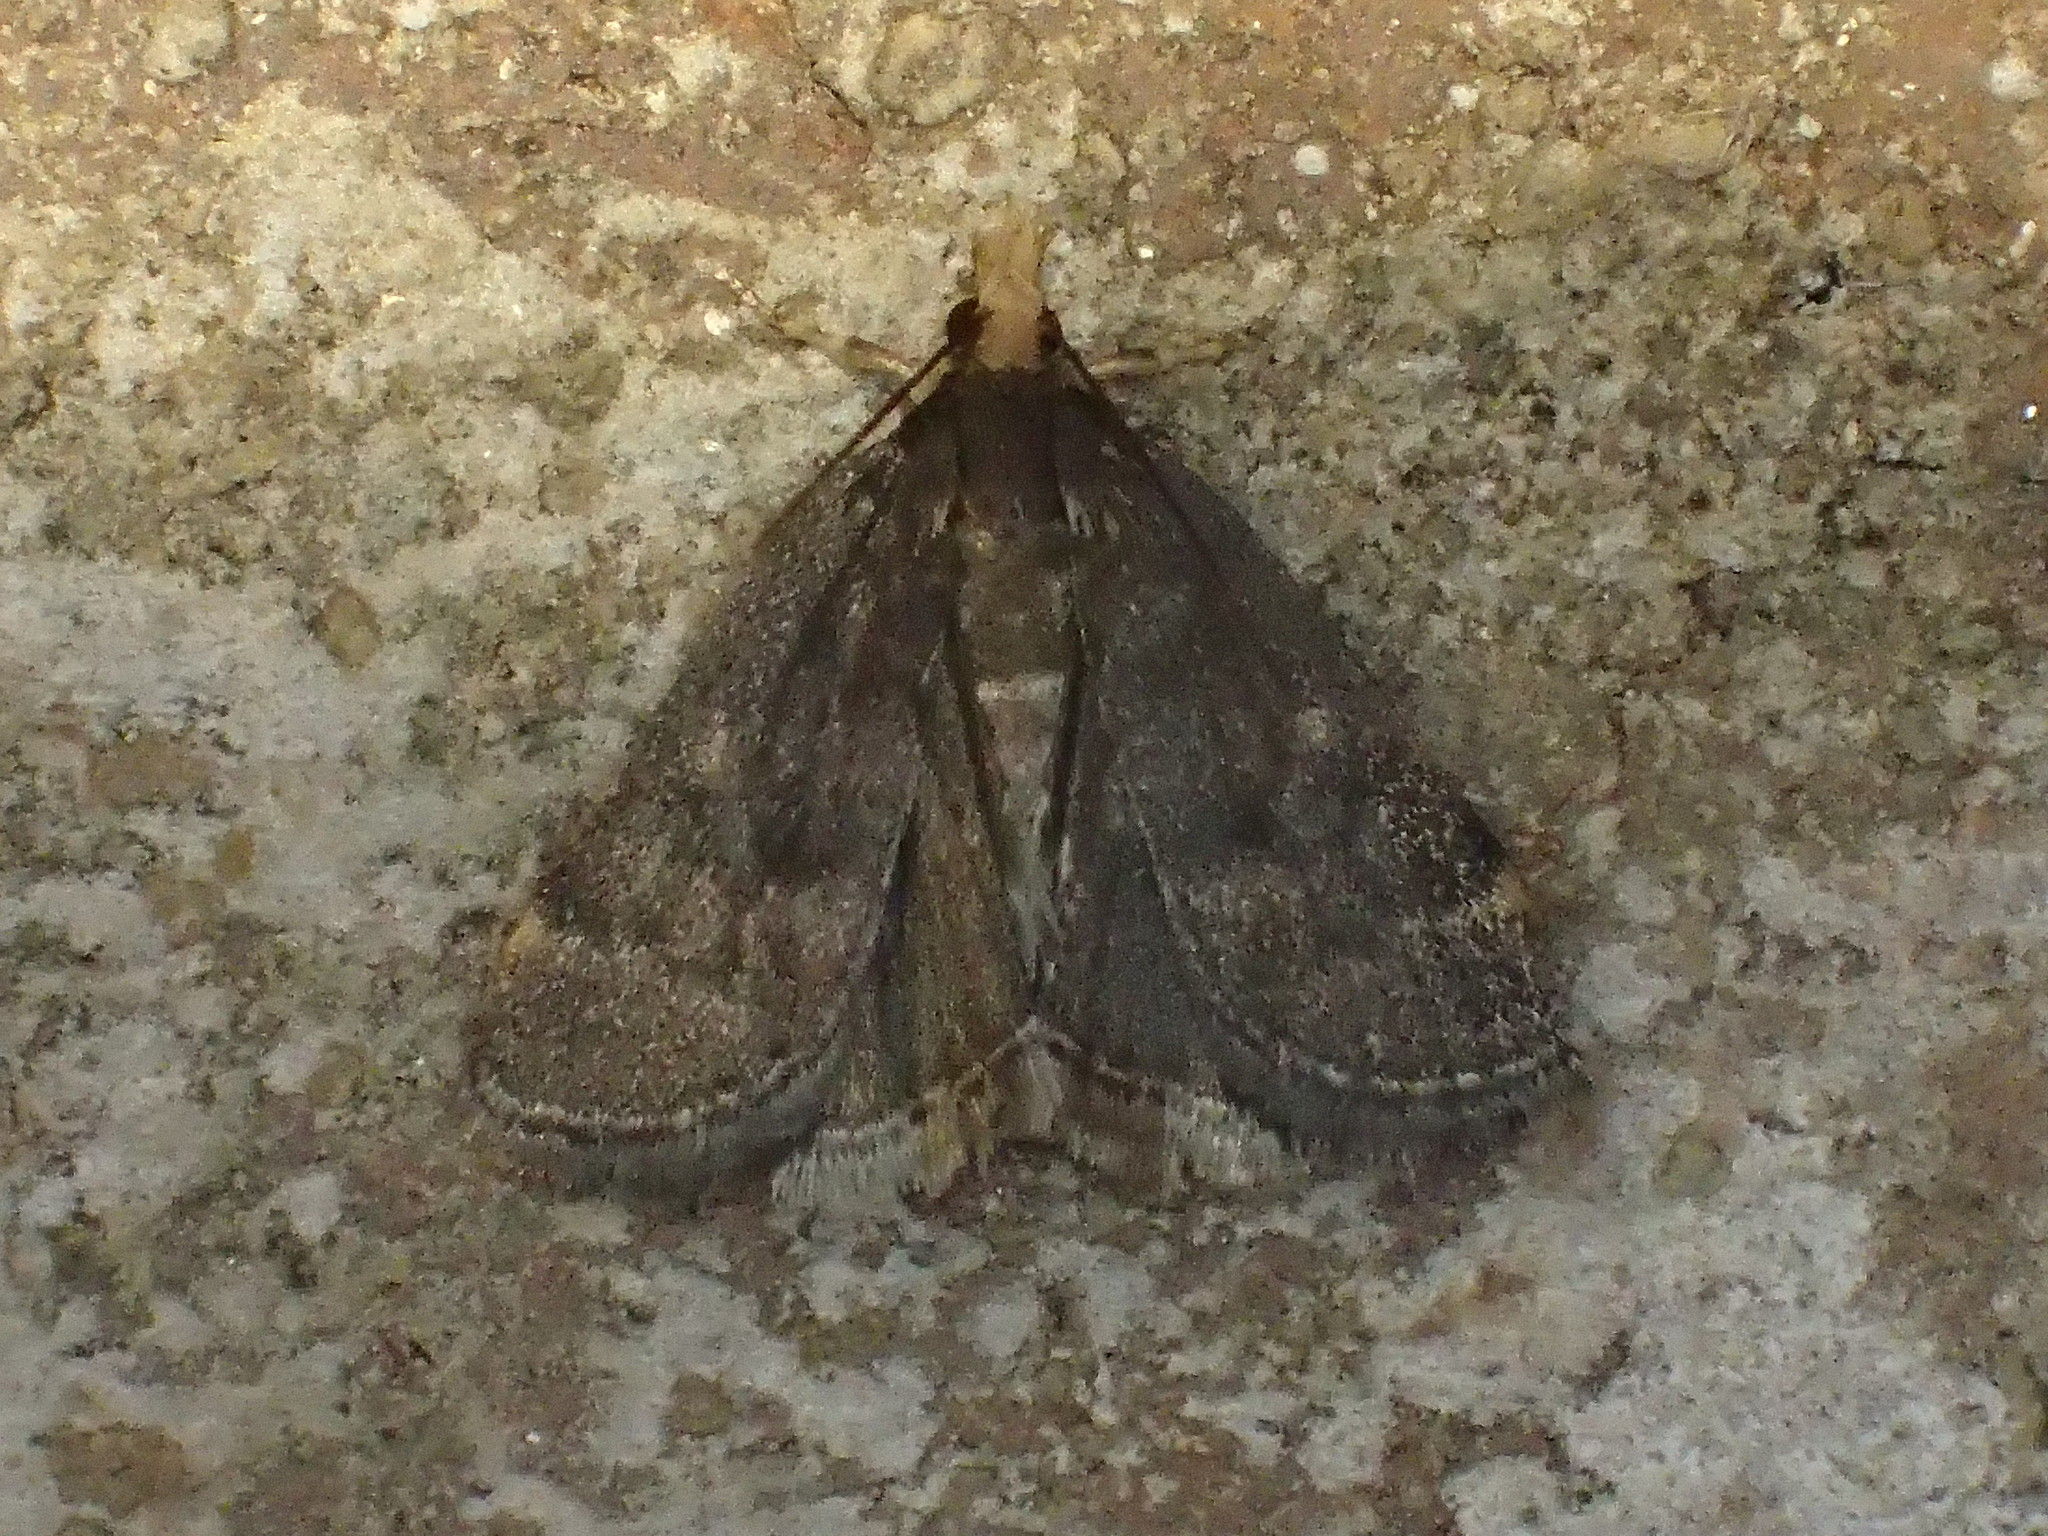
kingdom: Animalia
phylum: Arthropoda
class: Insecta
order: Lepidoptera
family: Crambidae
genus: Pyrausta
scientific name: Pyrausta merrickalis
